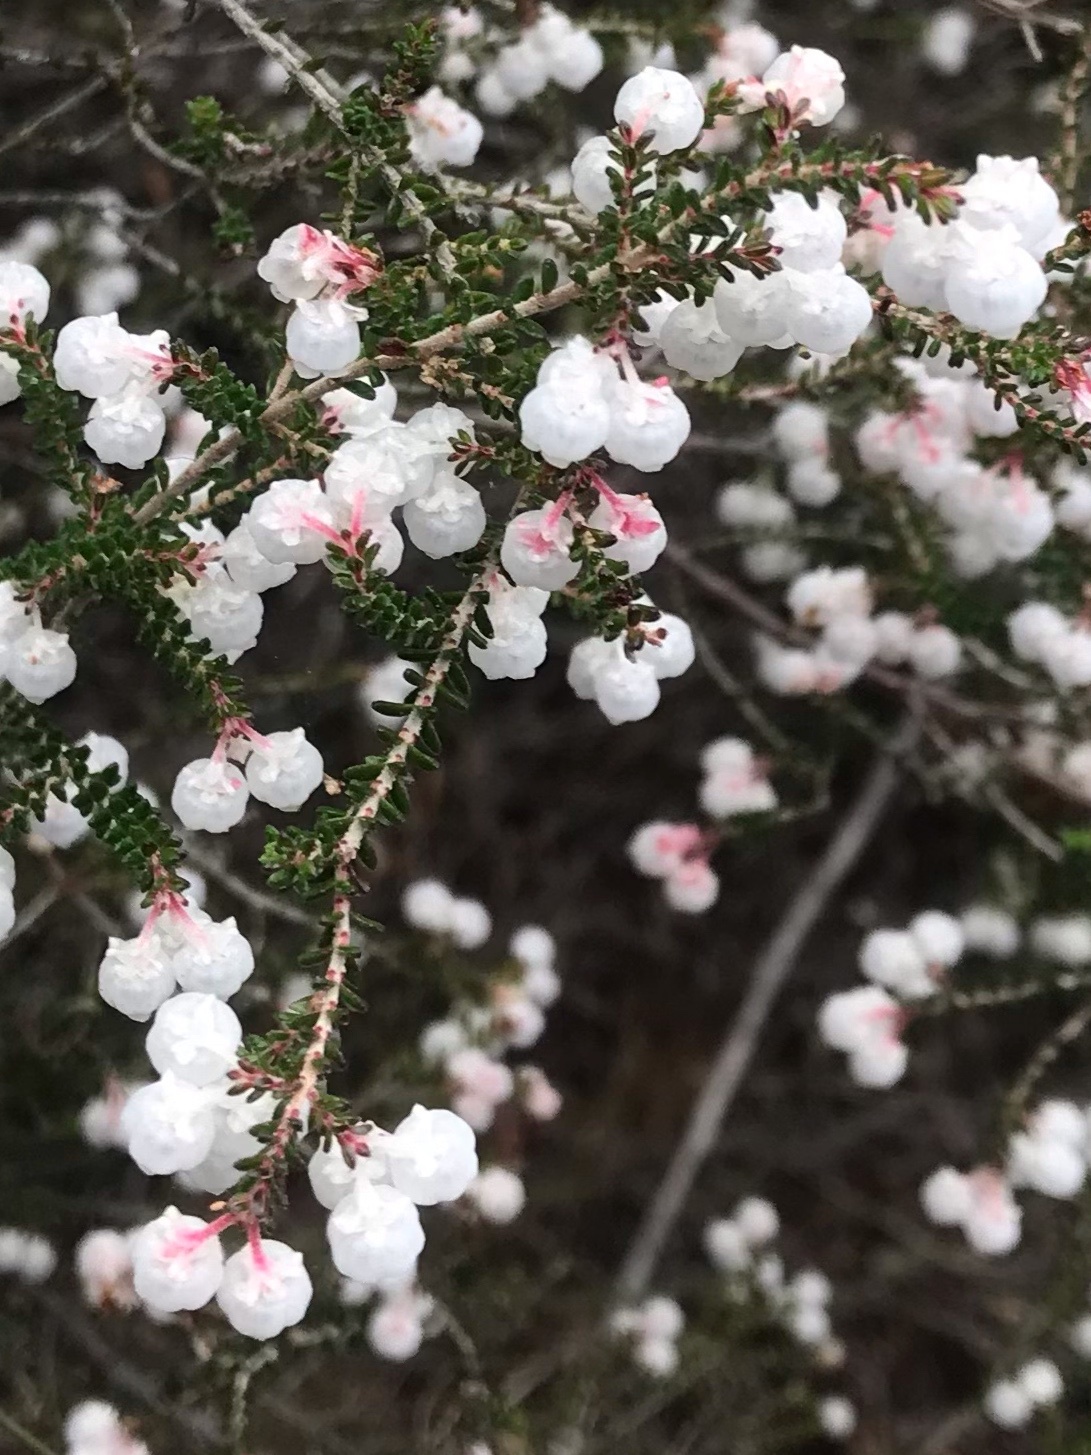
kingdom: Plantae
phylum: Tracheophyta
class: Magnoliopsida
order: Ericales
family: Ericaceae
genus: Erica
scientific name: Erica formosa
